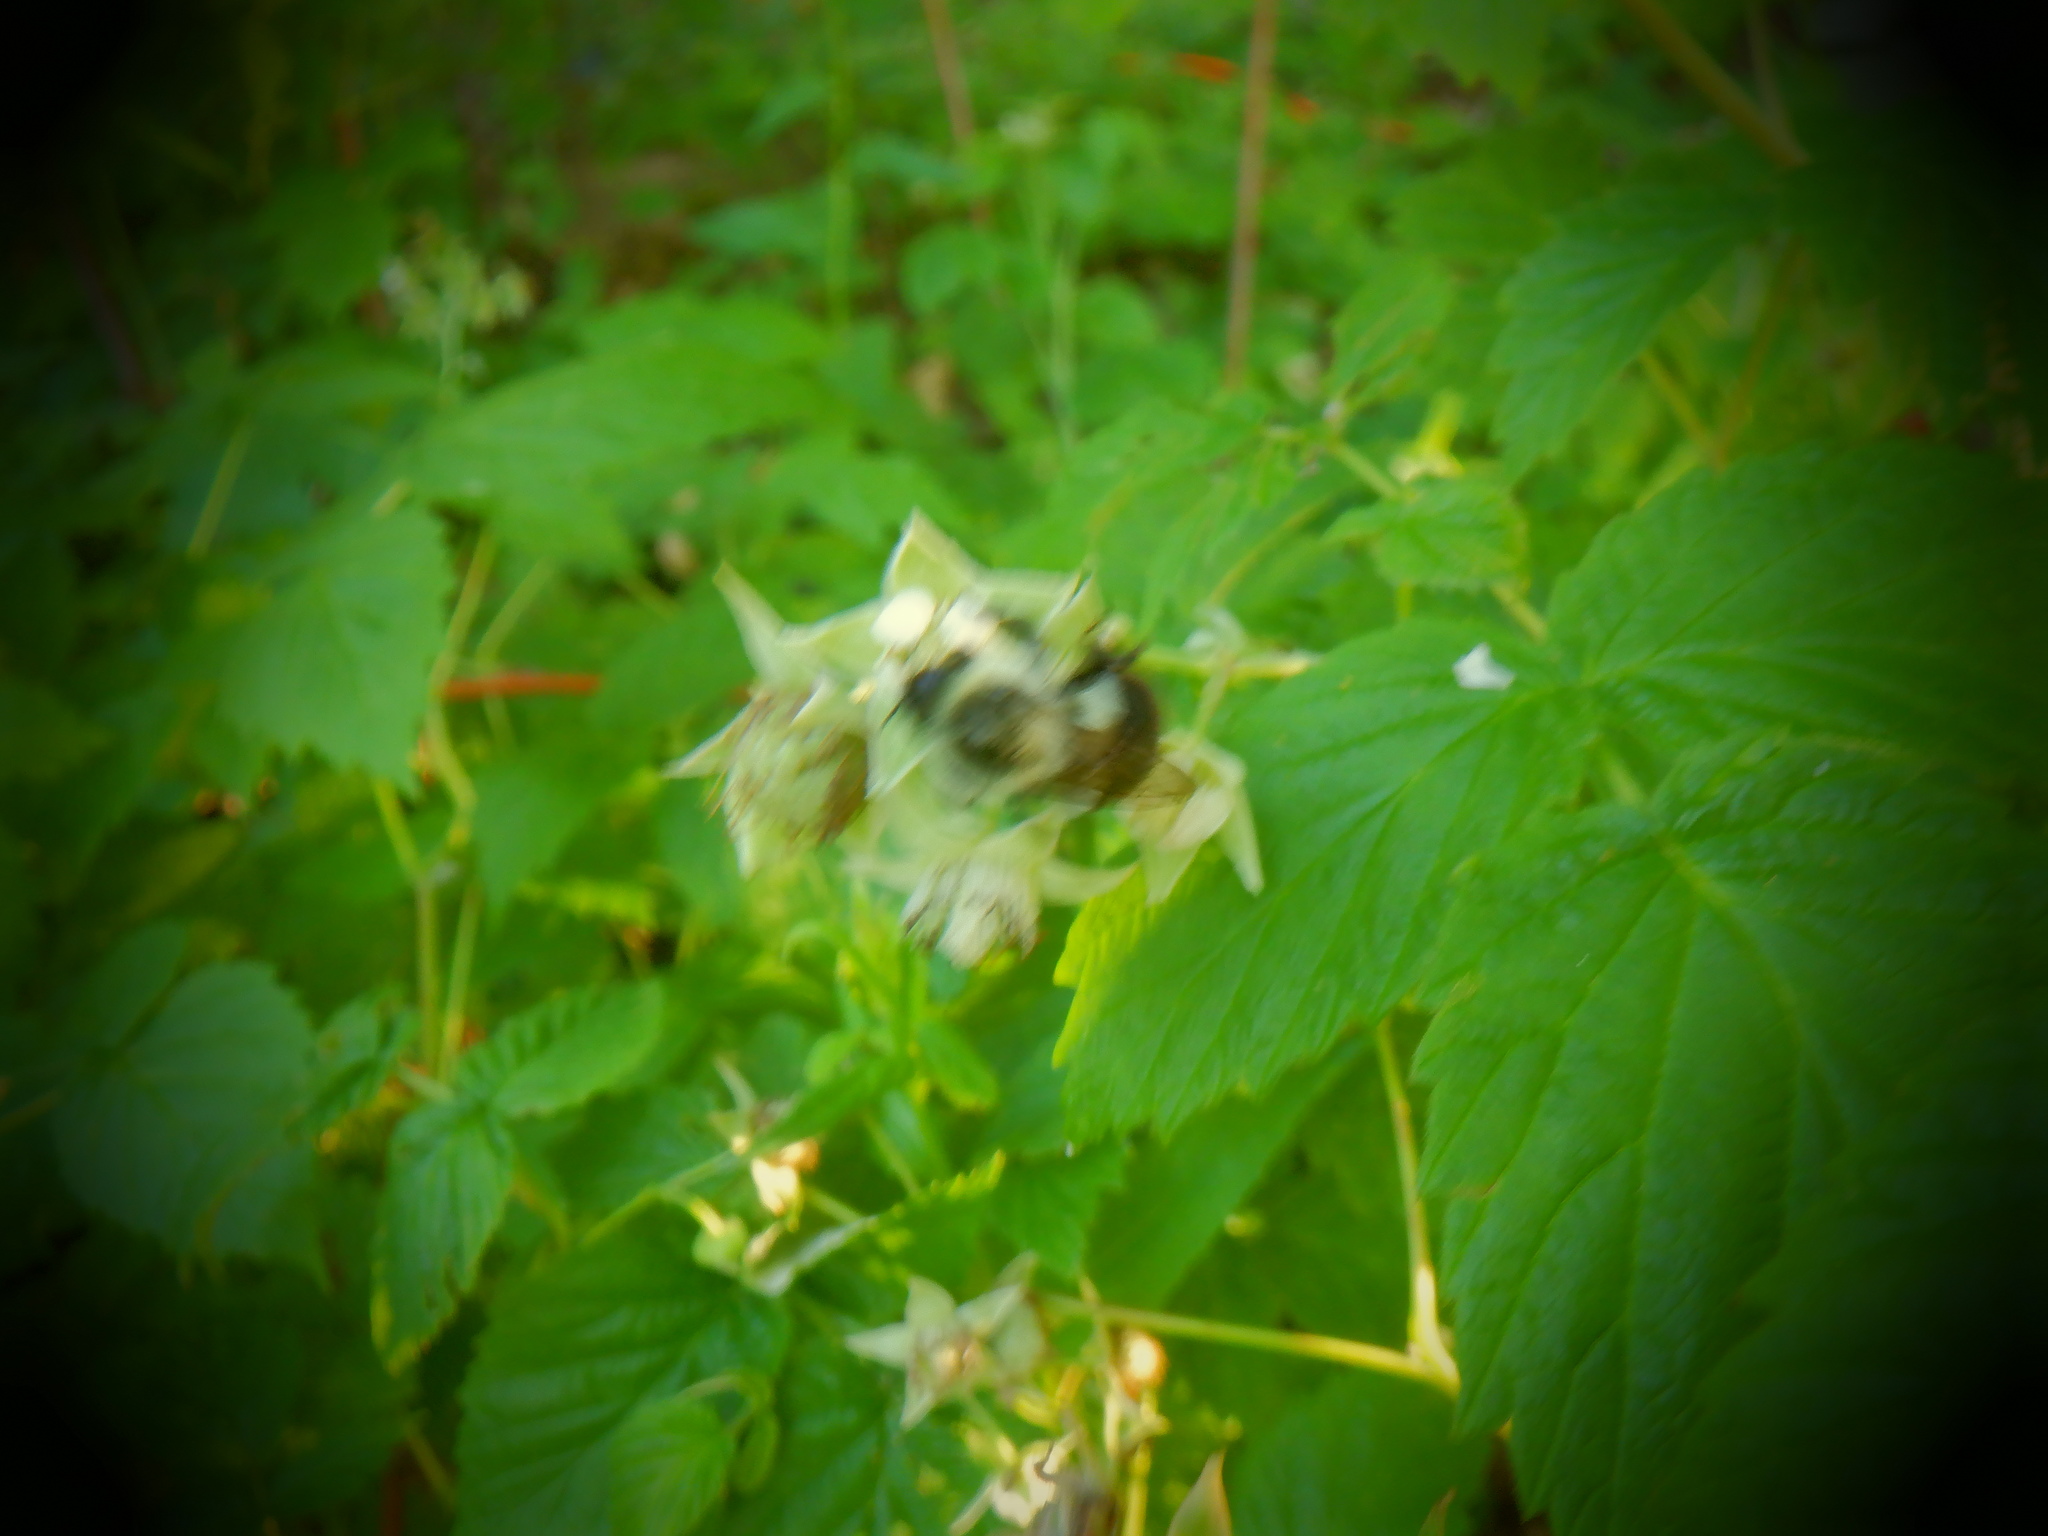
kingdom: Animalia
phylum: Arthropoda
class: Insecta
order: Hymenoptera
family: Apidae
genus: Bombus
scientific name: Bombus impatiens
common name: Common eastern bumble bee
